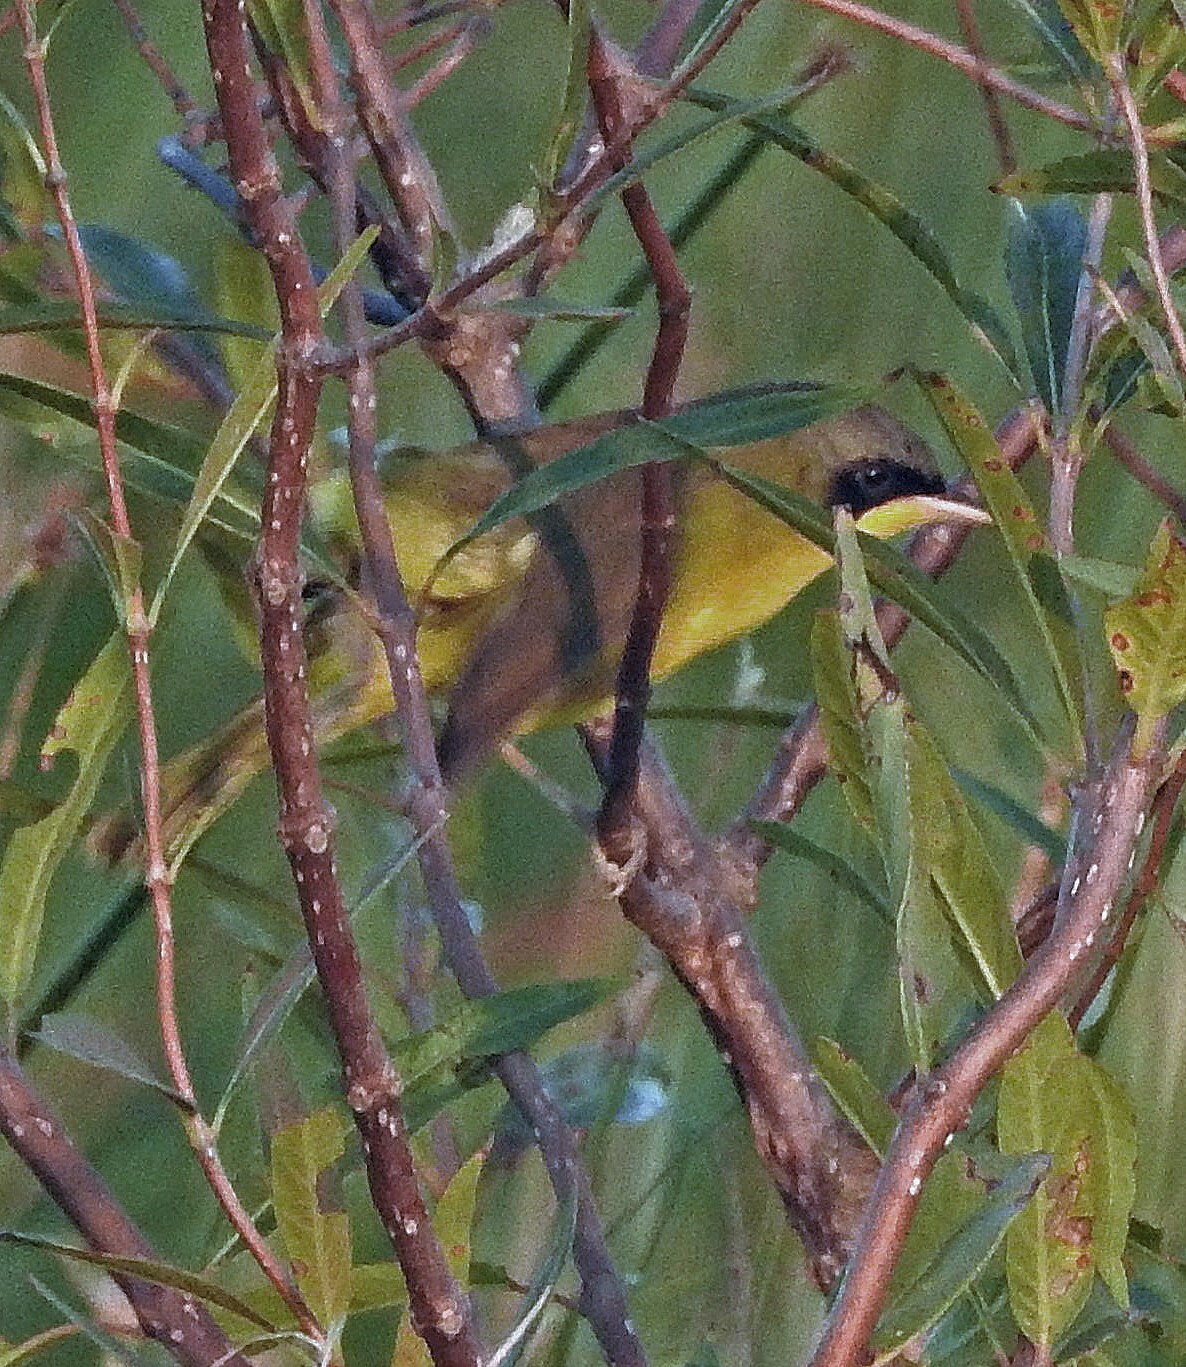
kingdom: Animalia
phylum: Chordata
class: Aves
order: Passeriformes
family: Parulidae
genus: Geothlypis
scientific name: Geothlypis velata
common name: Southern yellowthroat
